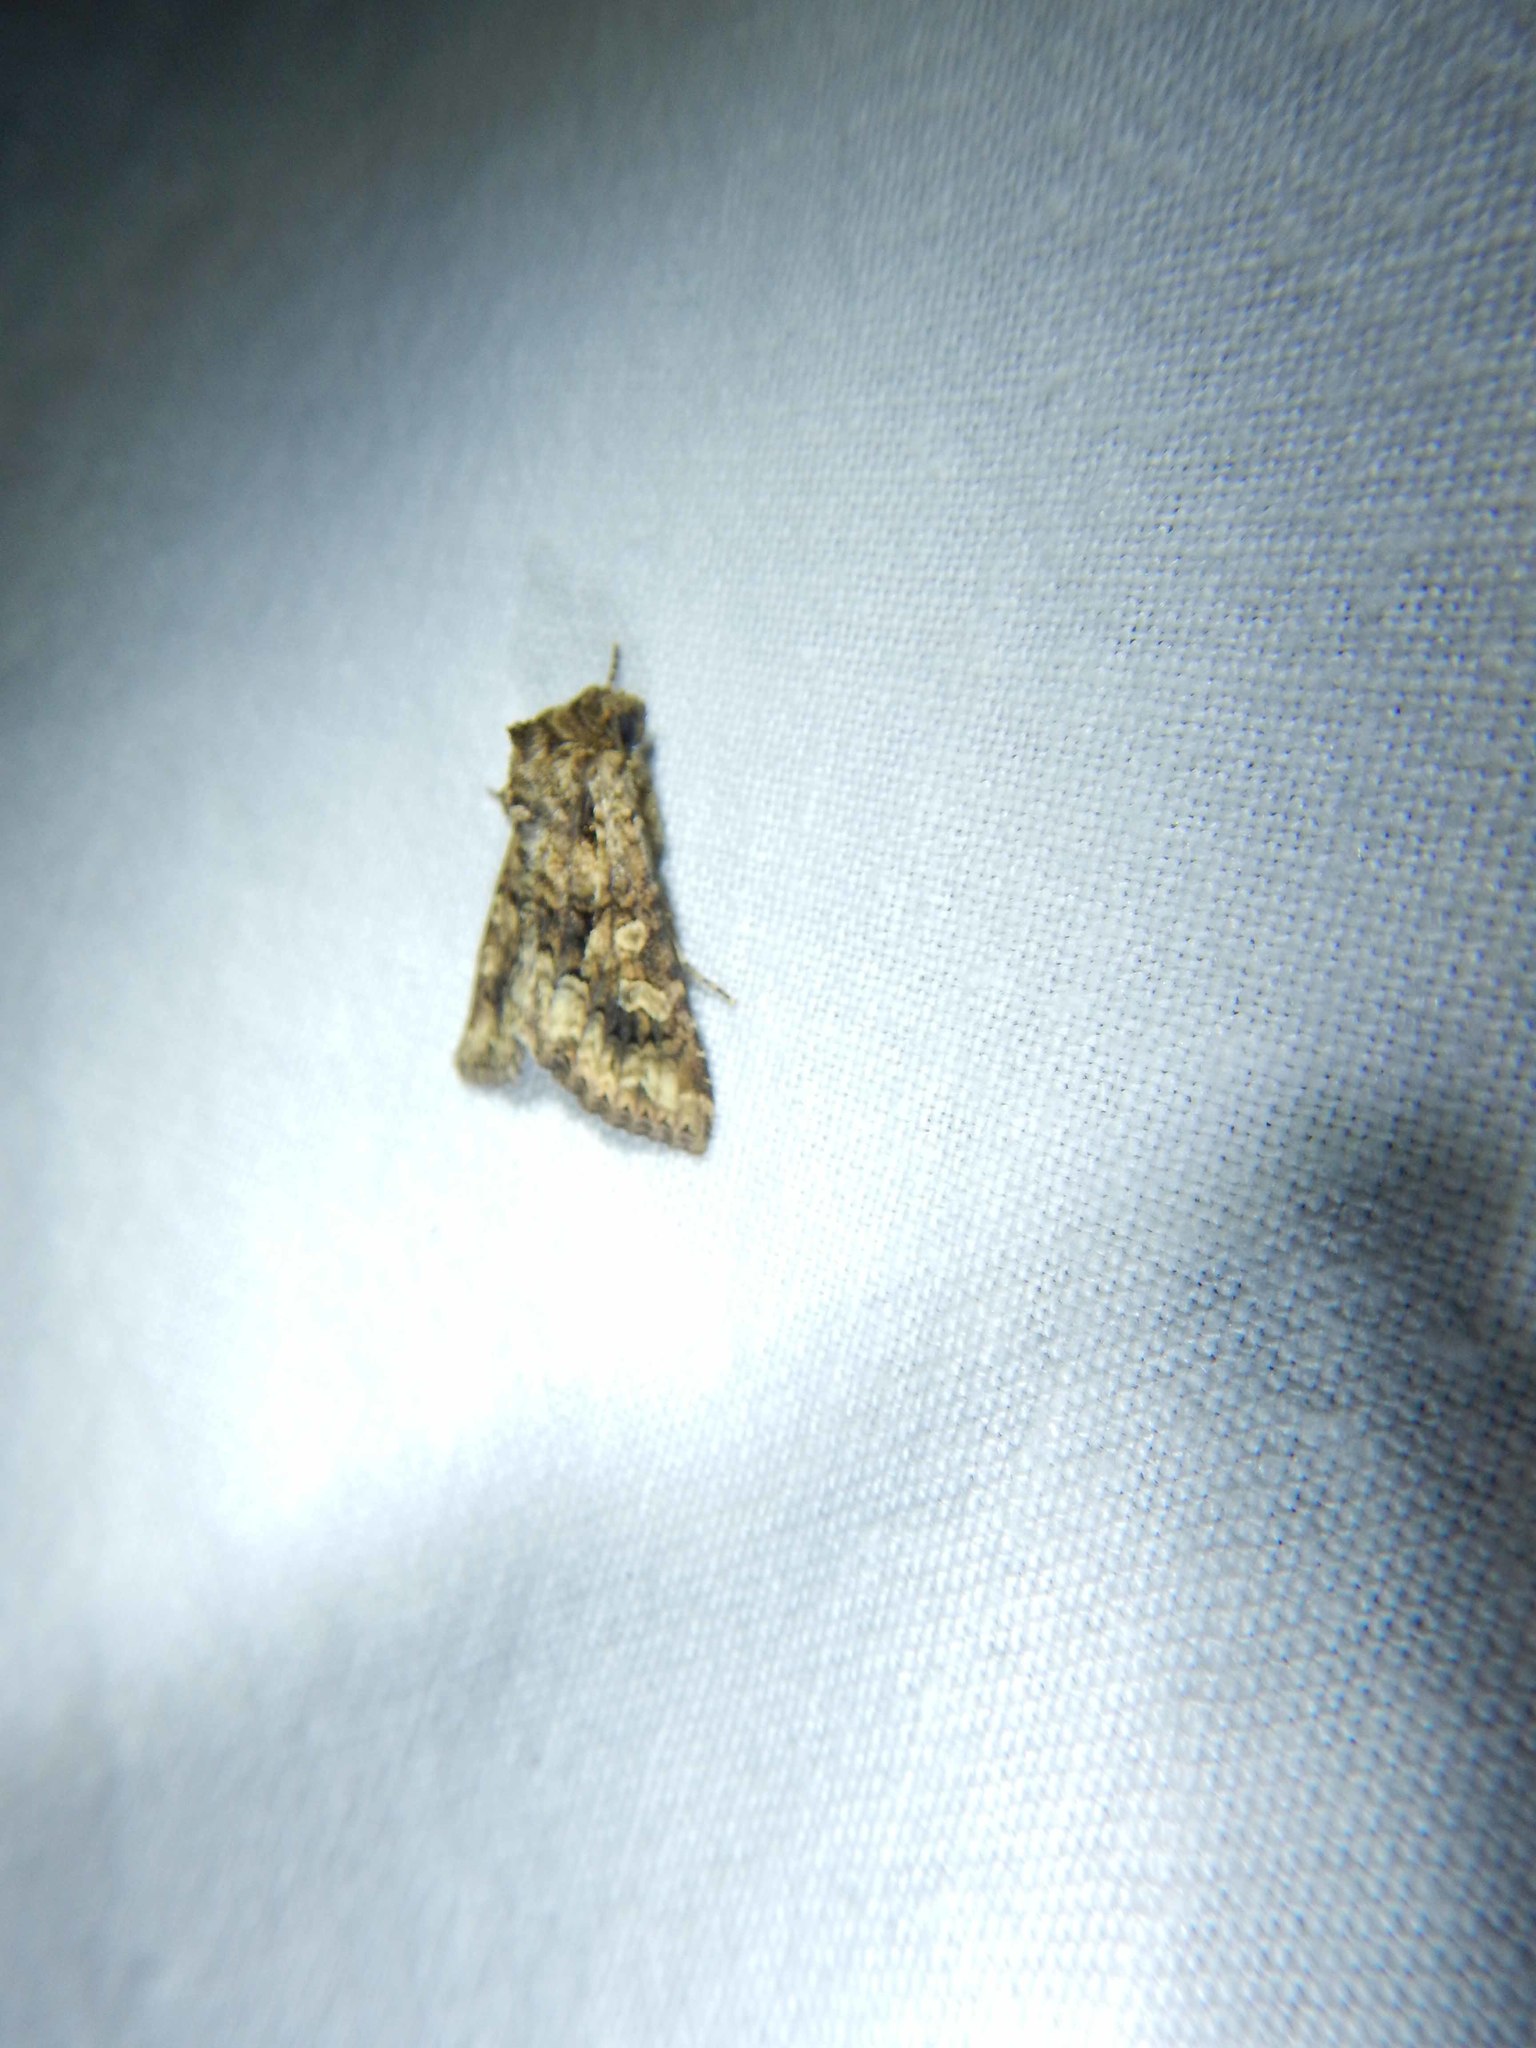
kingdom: Animalia
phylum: Arthropoda
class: Insecta
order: Lepidoptera
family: Noctuidae
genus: Conisania
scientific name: Conisania luteago
